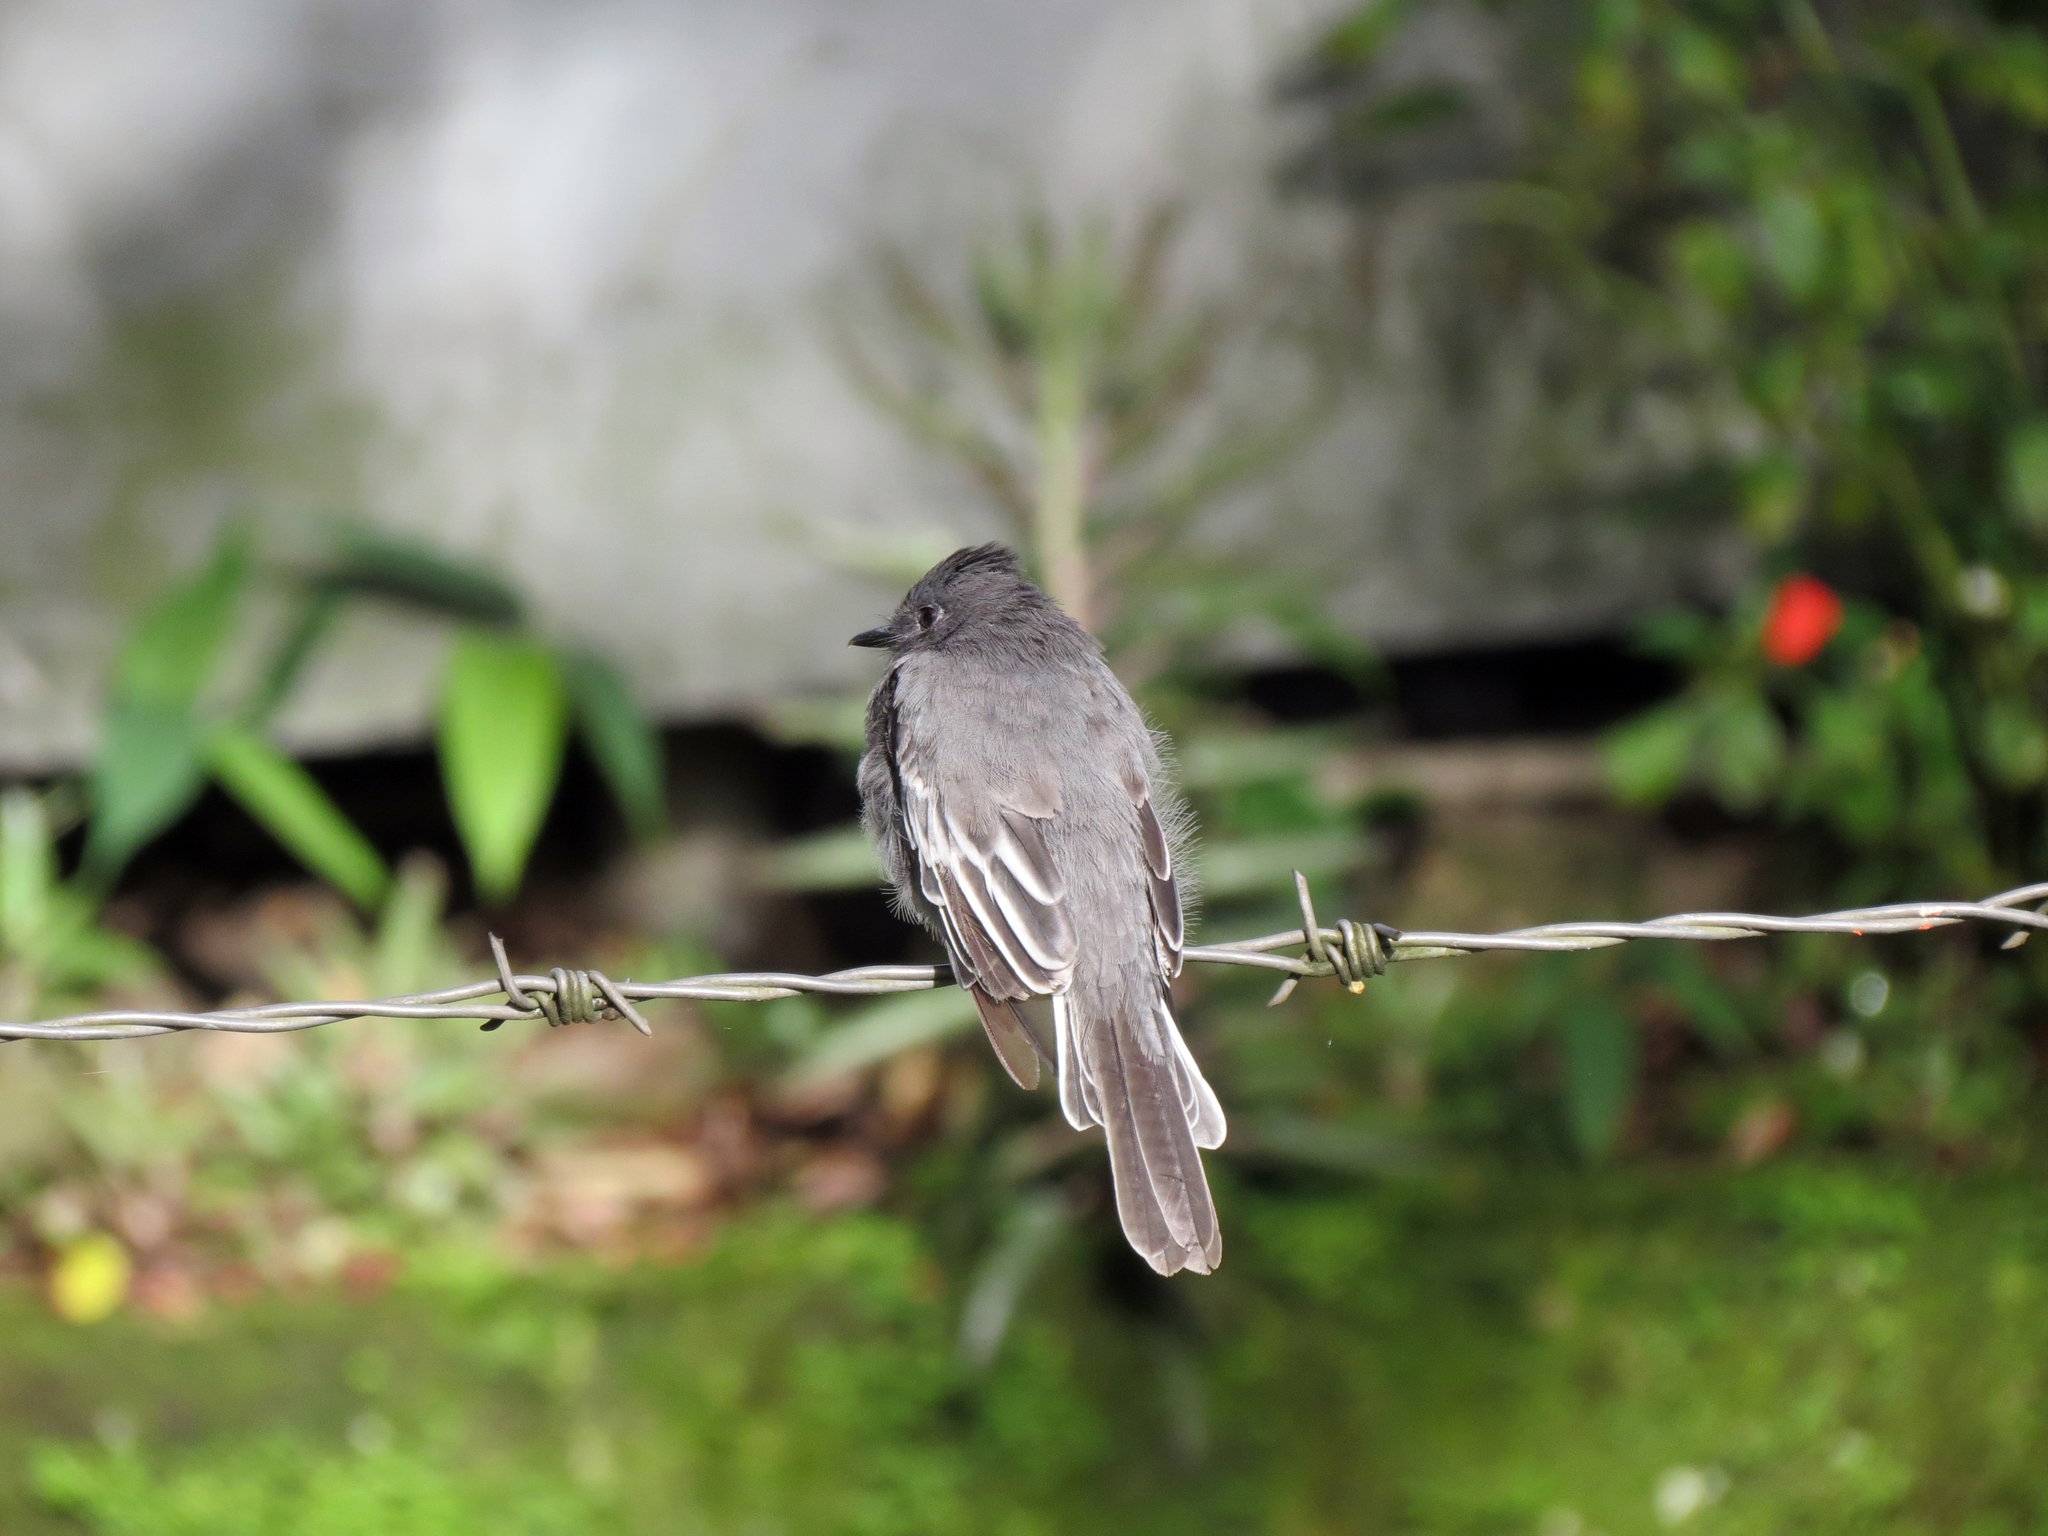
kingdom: Animalia
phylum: Chordata
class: Aves
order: Passeriformes
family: Tyrannidae
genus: Sayornis
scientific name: Sayornis nigricans
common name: Black phoebe
